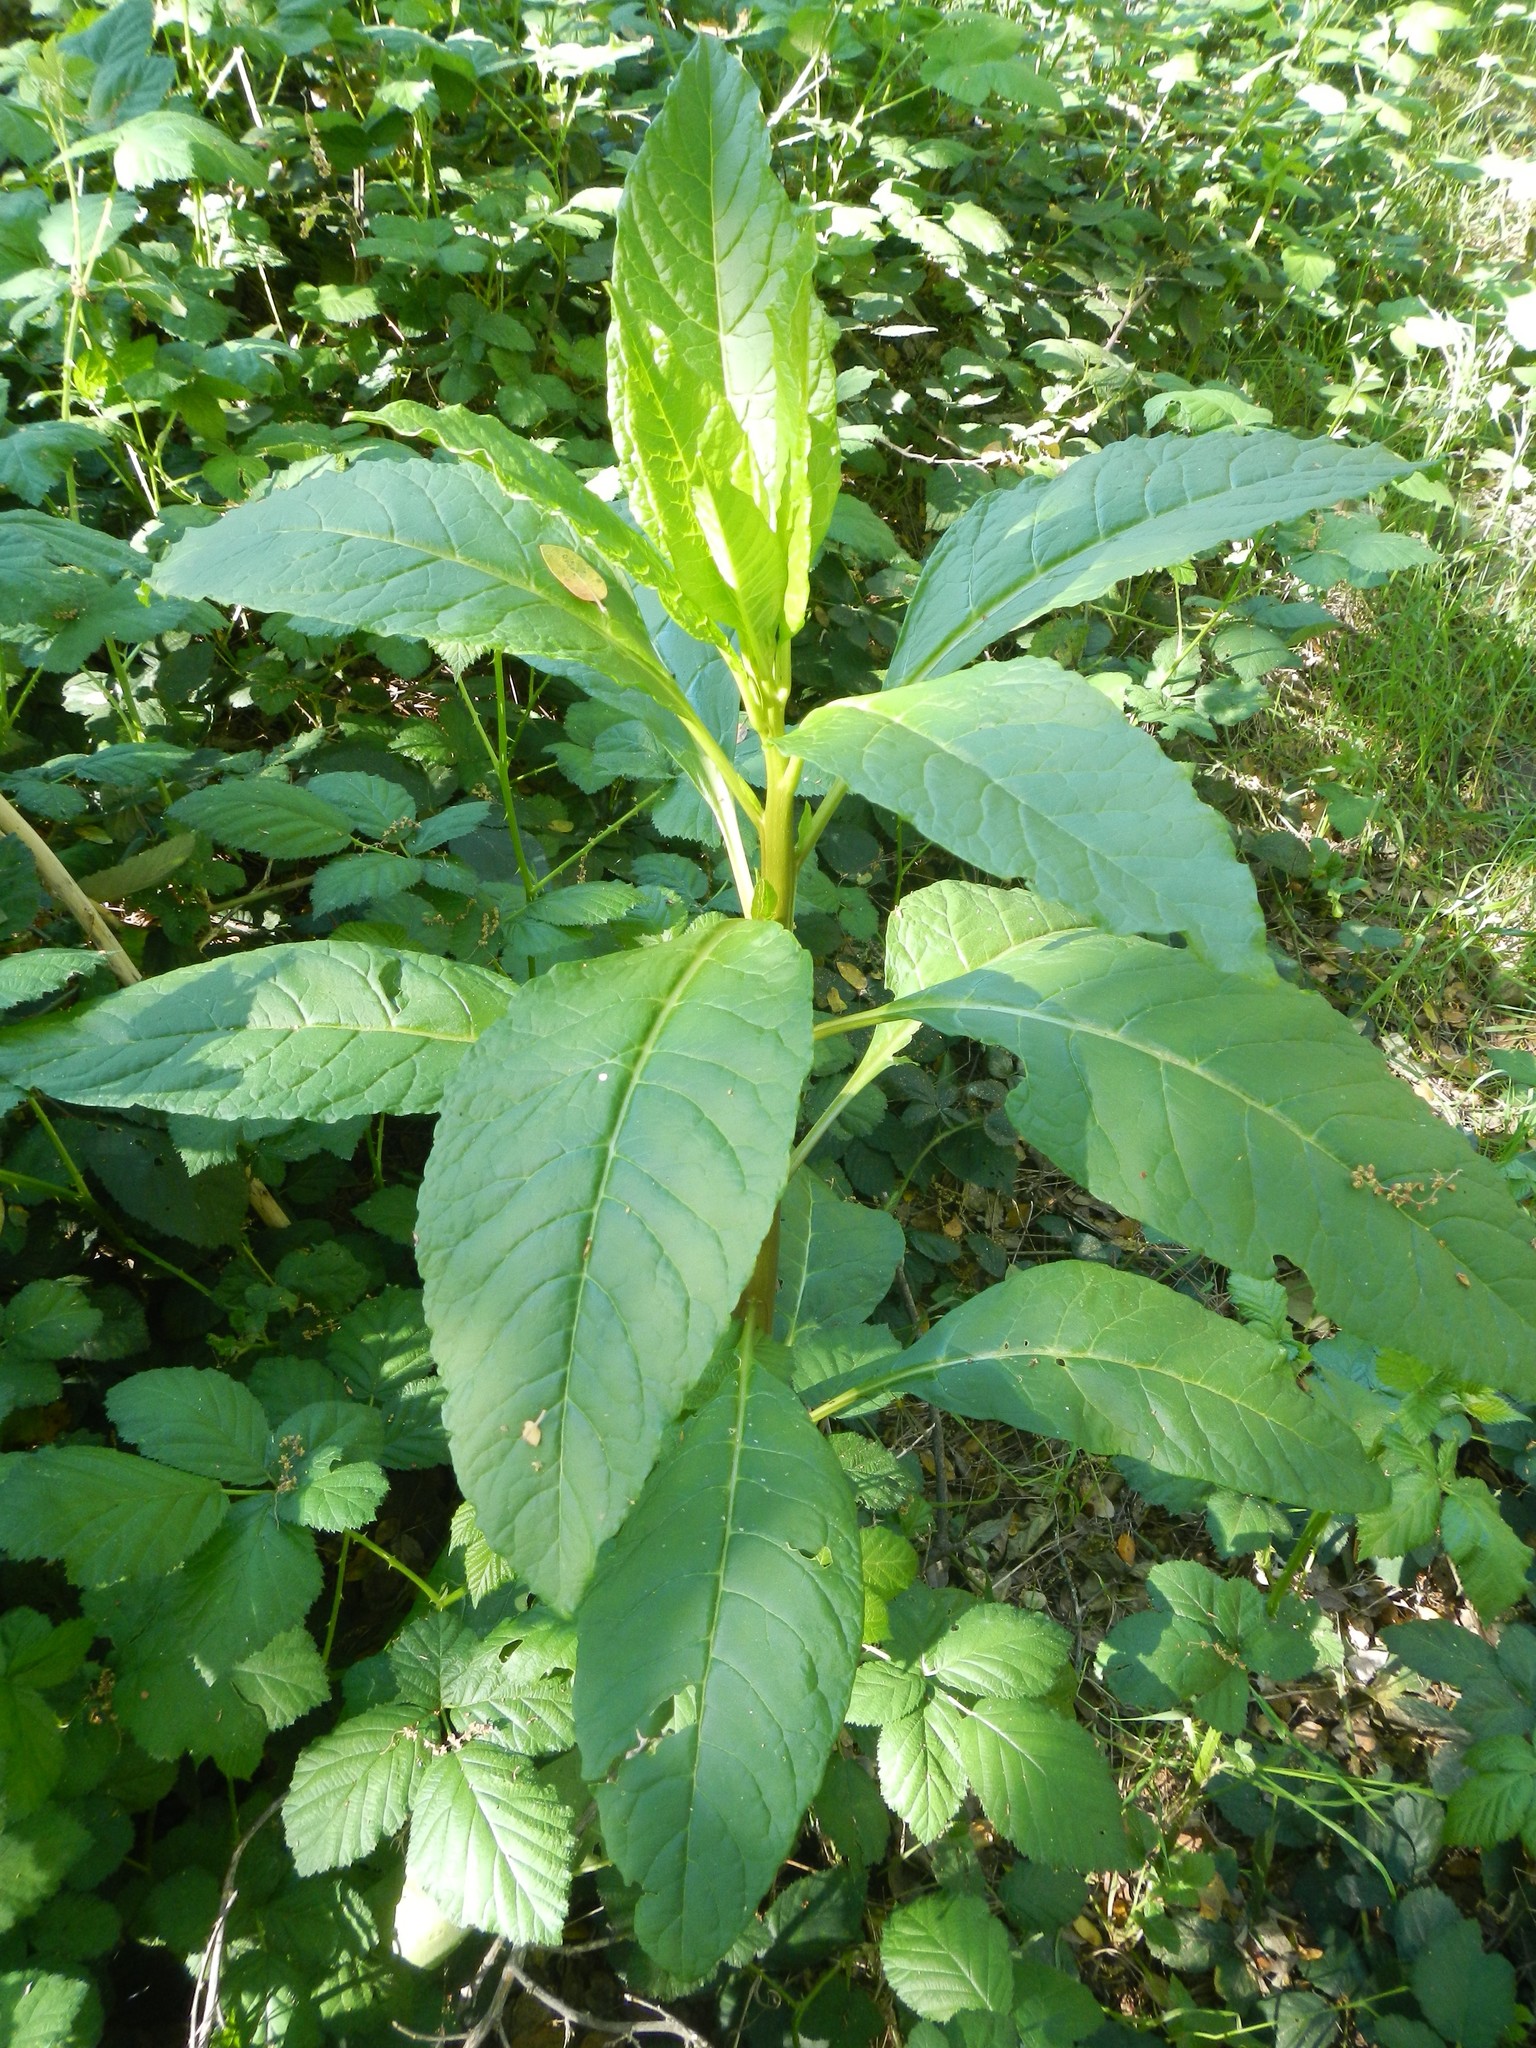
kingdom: Plantae
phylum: Tracheophyta
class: Magnoliopsida
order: Caryophyllales
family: Phytolaccaceae
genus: Phytolacca
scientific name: Phytolacca americana
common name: American pokeweed
